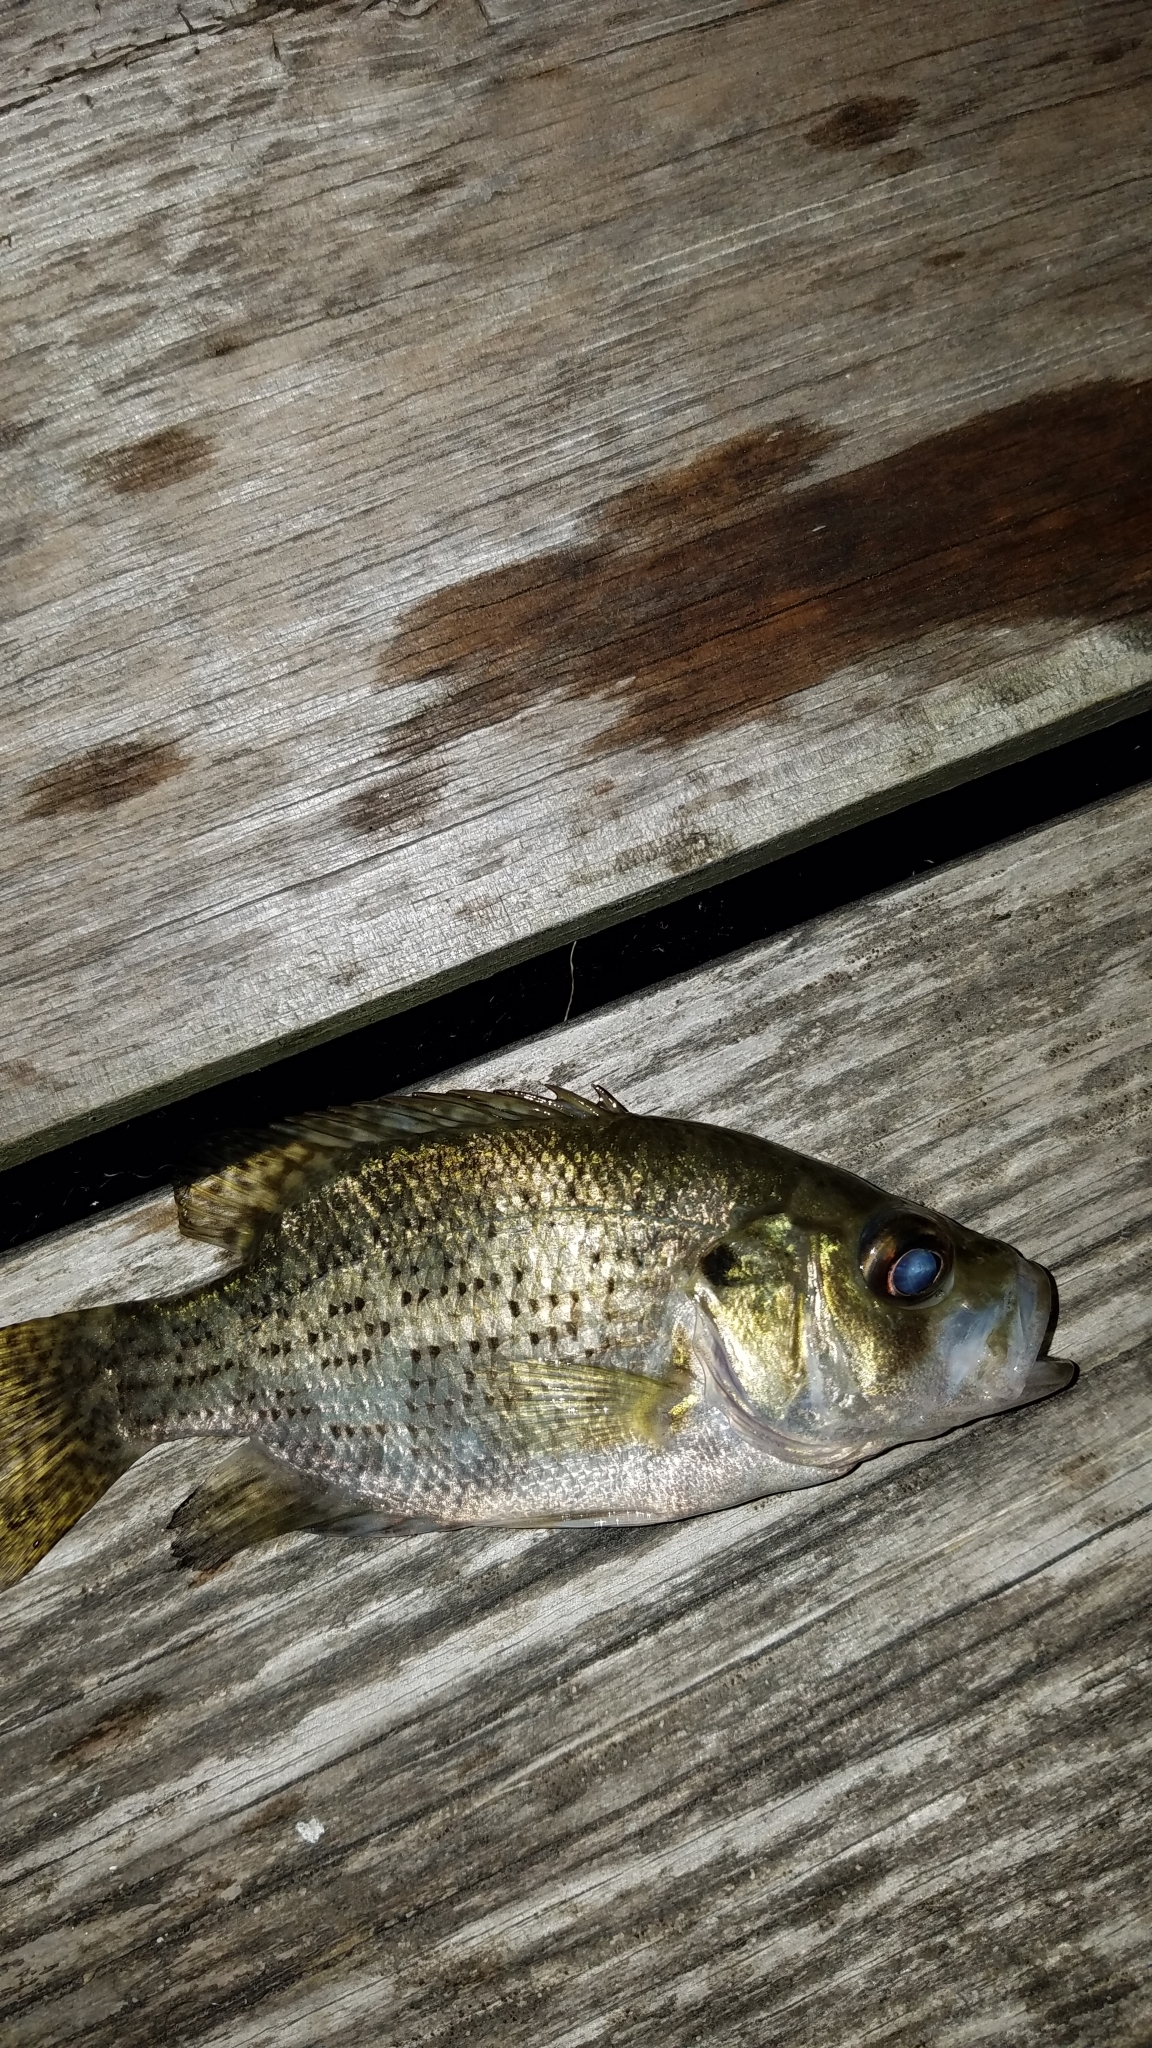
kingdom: Animalia
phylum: Chordata
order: Perciformes
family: Centrarchidae
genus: Ambloplites
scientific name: Ambloplites rupestris
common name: Rock bass
